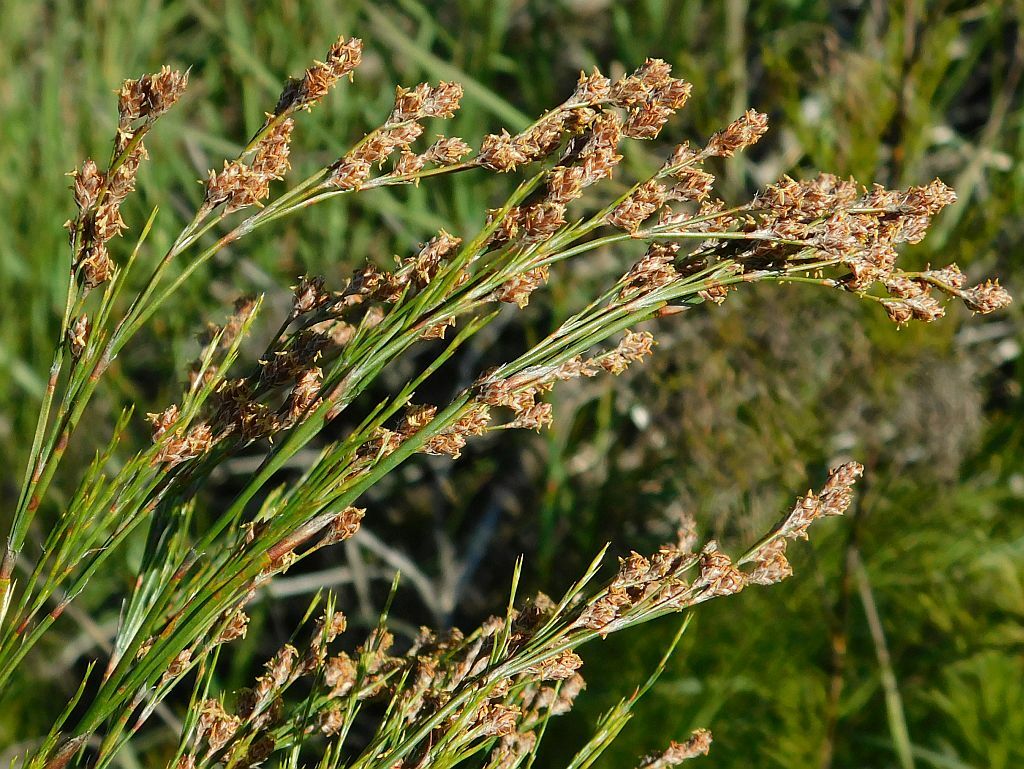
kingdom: Plantae
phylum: Tracheophyta
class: Liliopsida
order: Poales
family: Restionaceae
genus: Restio
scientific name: Restio paniculatus
